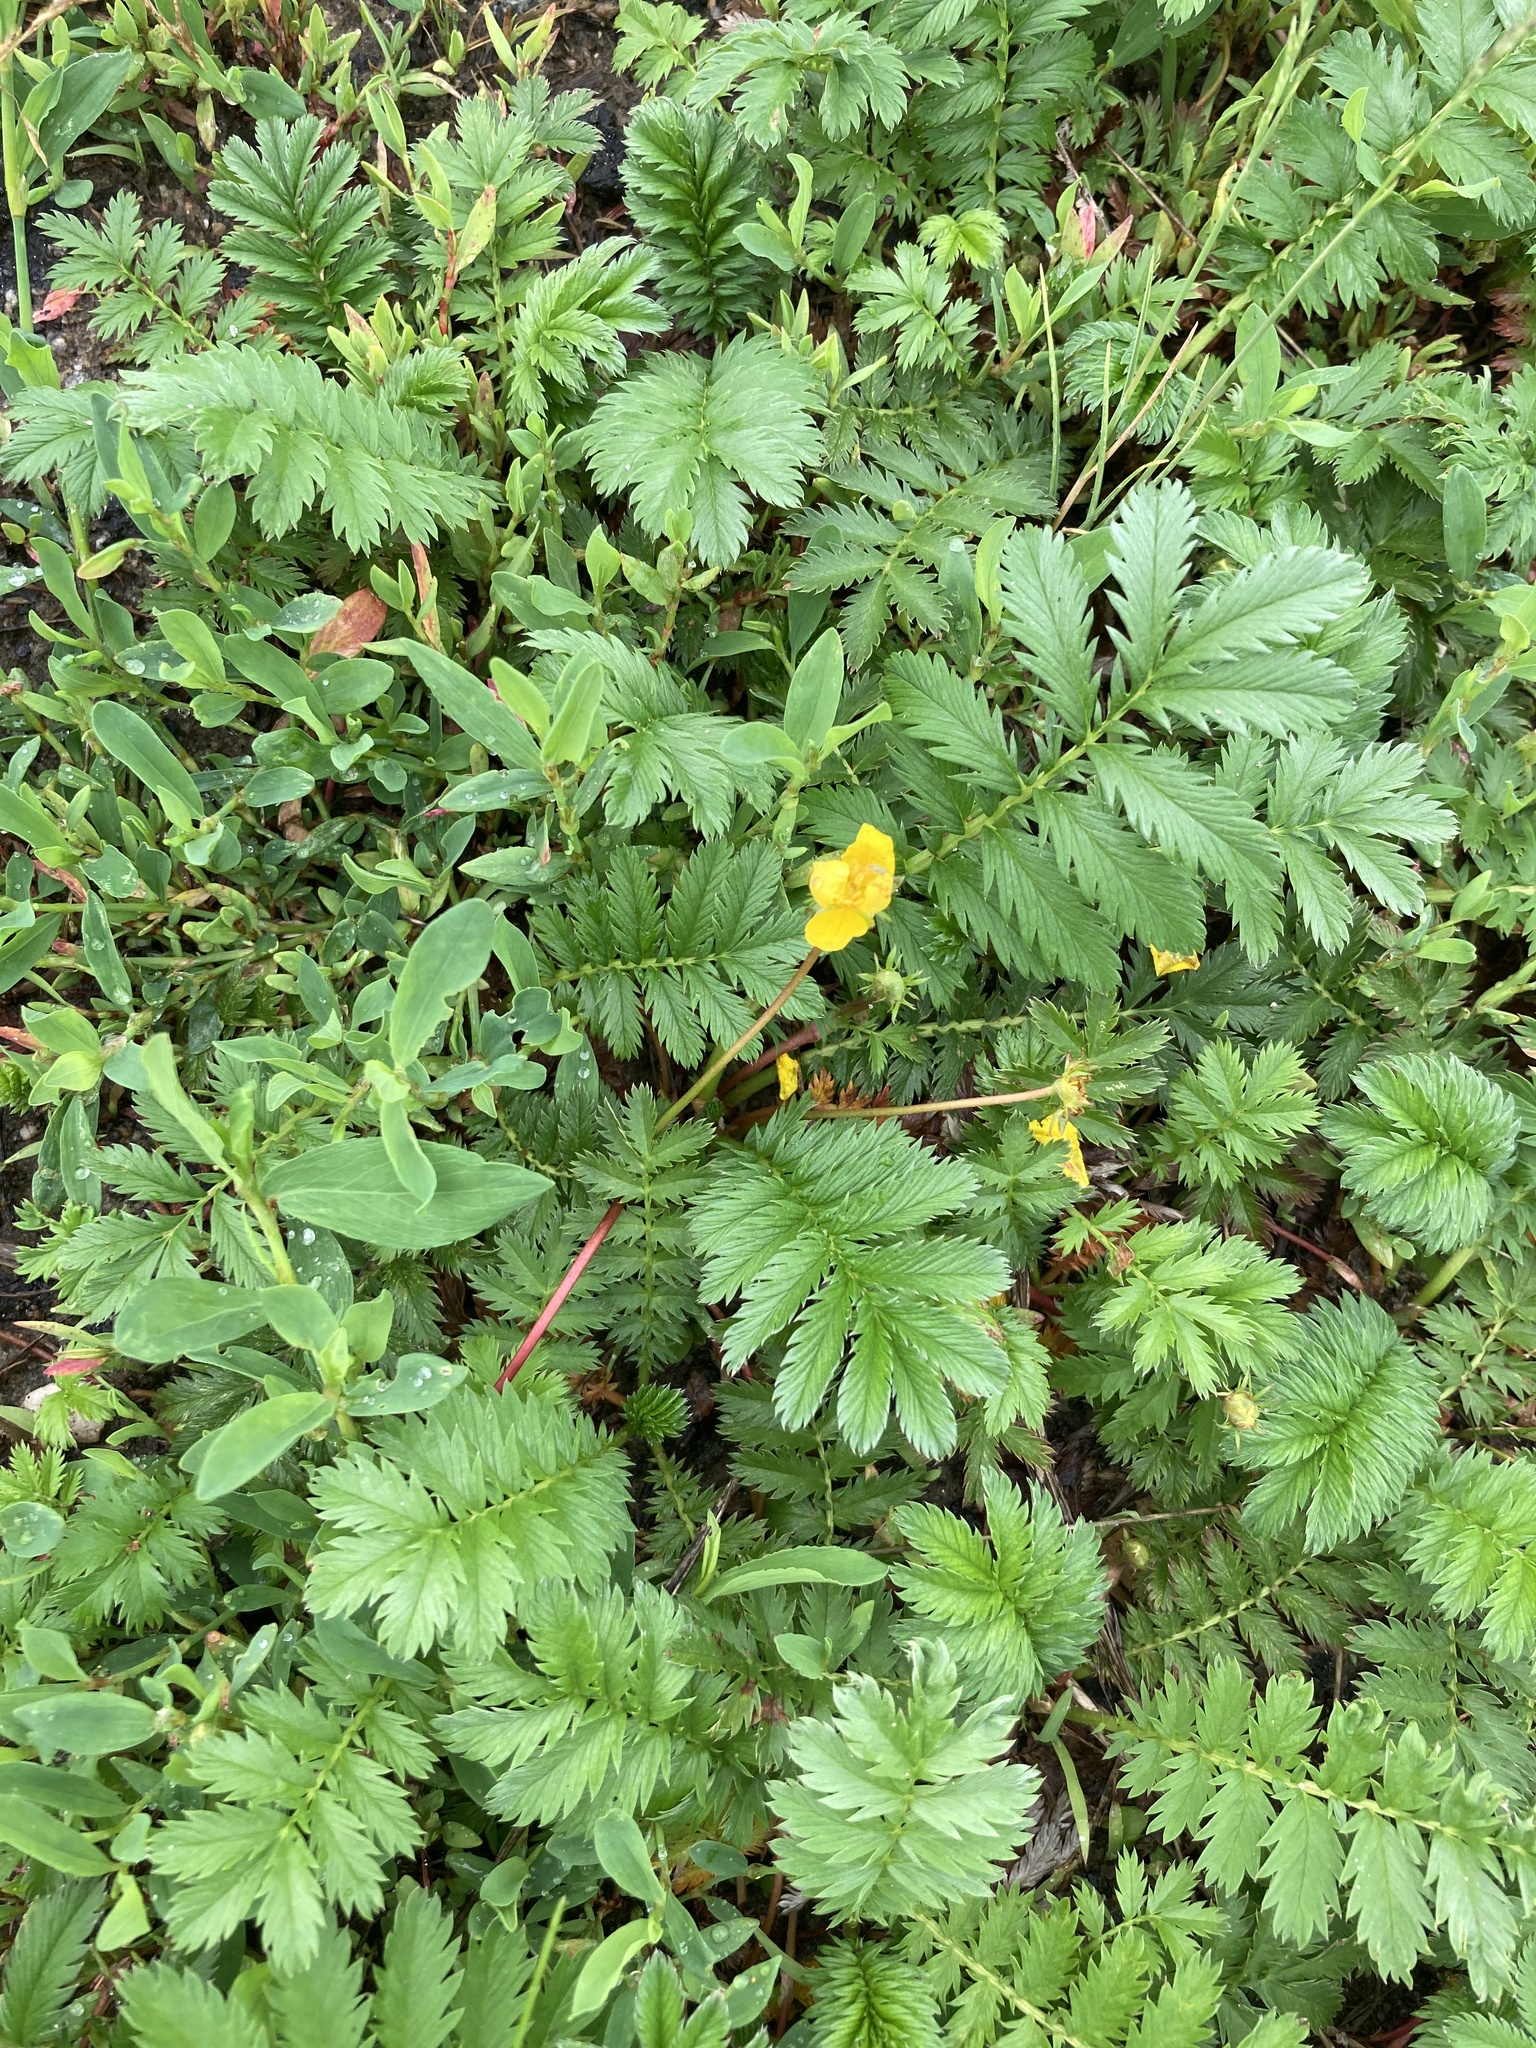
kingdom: Plantae
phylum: Tracheophyta
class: Magnoliopsida
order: Rosales
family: Rosaceae
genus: Argentina
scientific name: Argentina anserina
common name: Common silverweed
